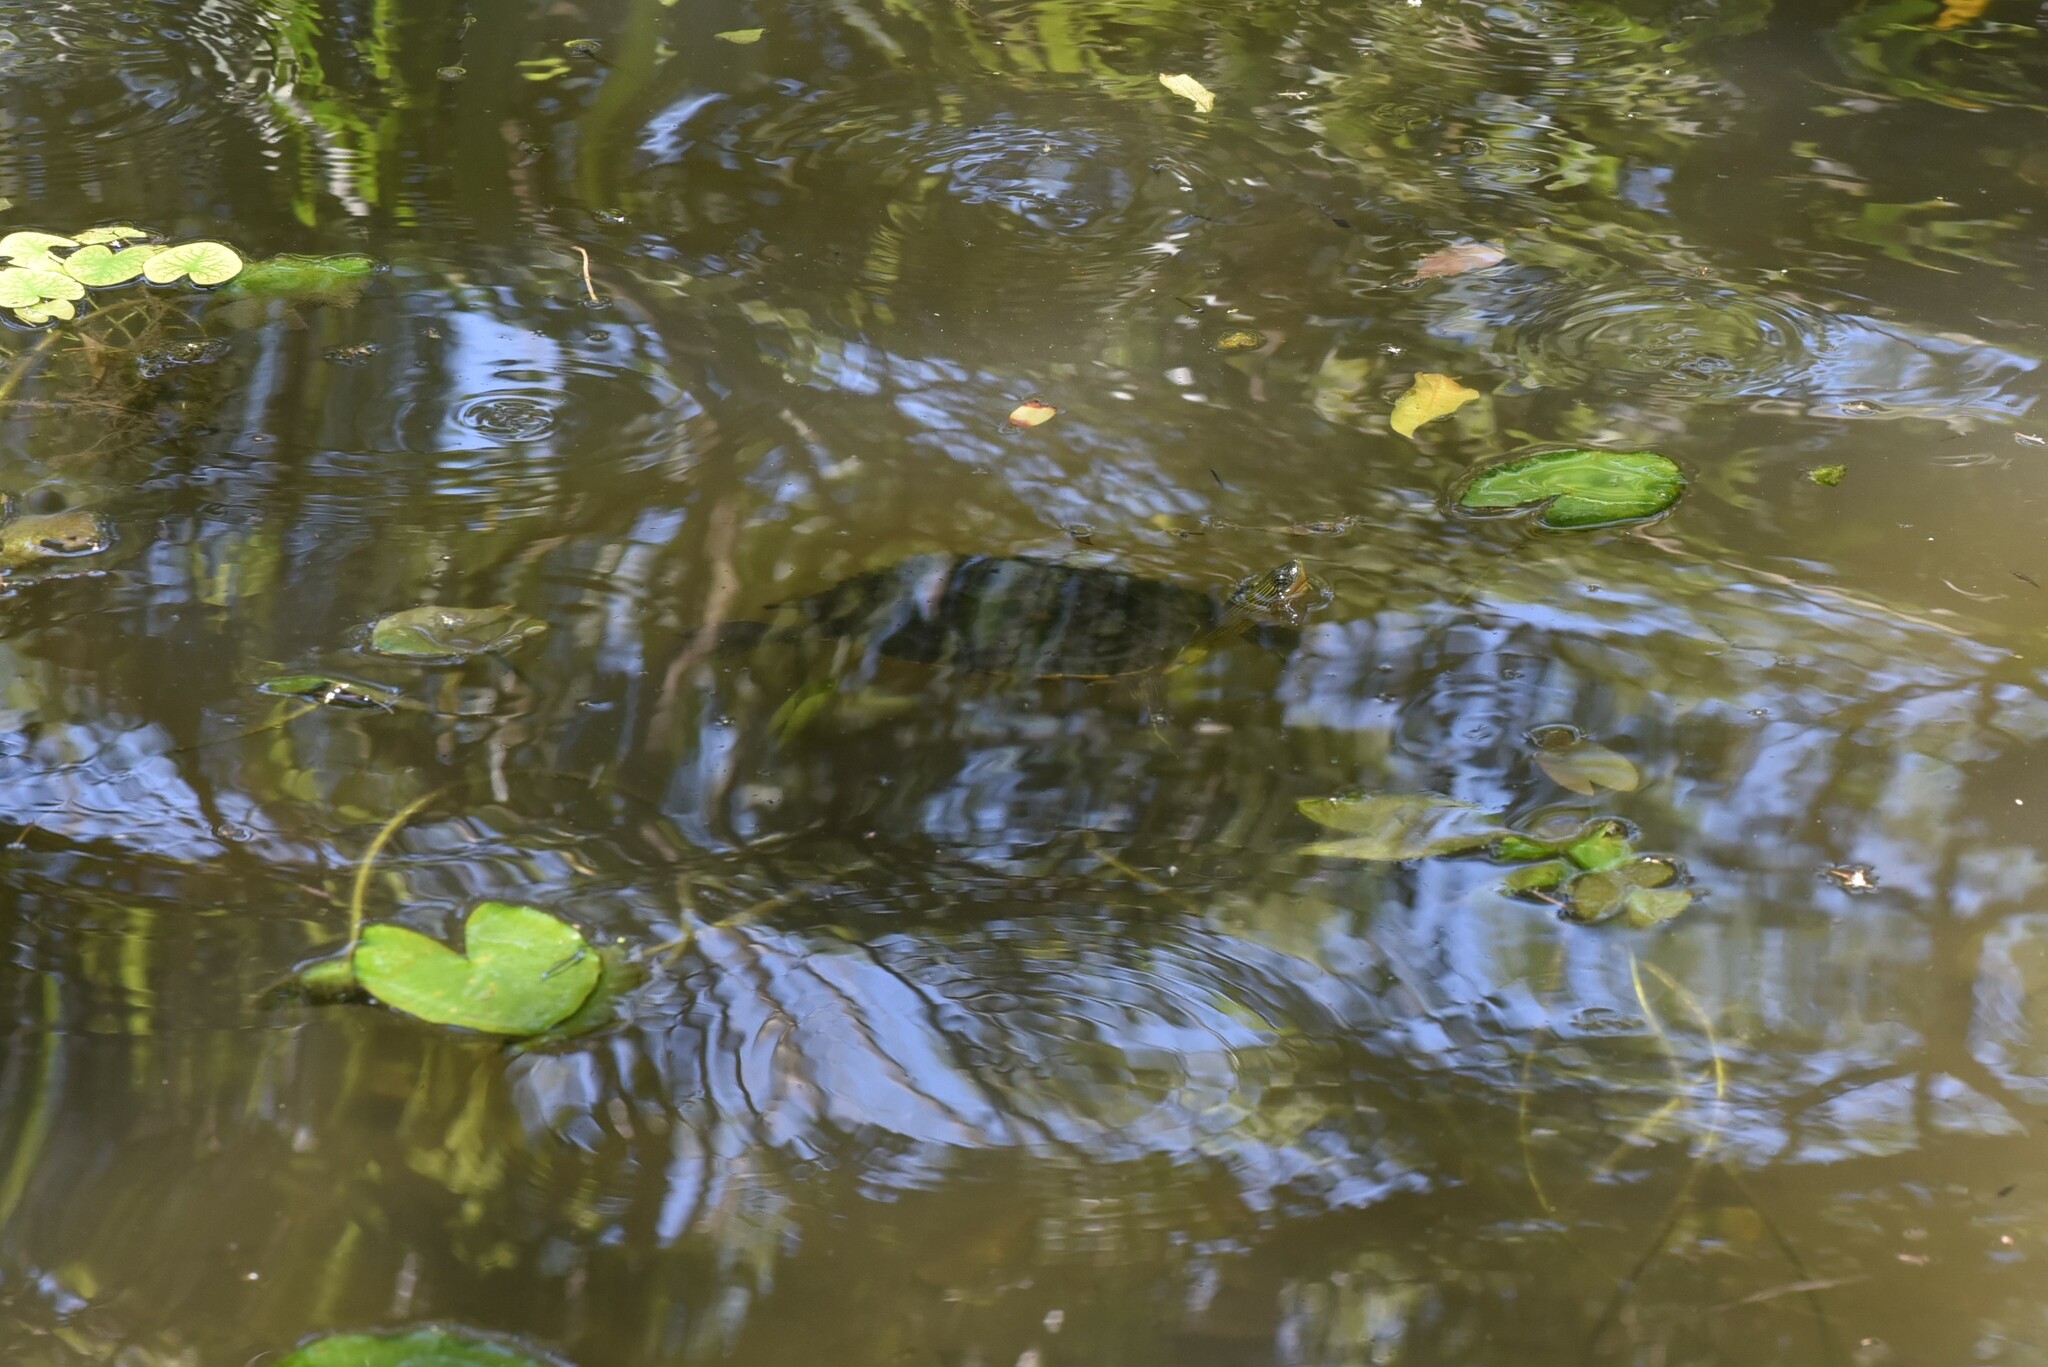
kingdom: Animalia
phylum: Chordata
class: Testudines
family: Geoemydidae
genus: Mauremys
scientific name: Mauremys sinensis
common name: Chinese stripe-necked turtle
